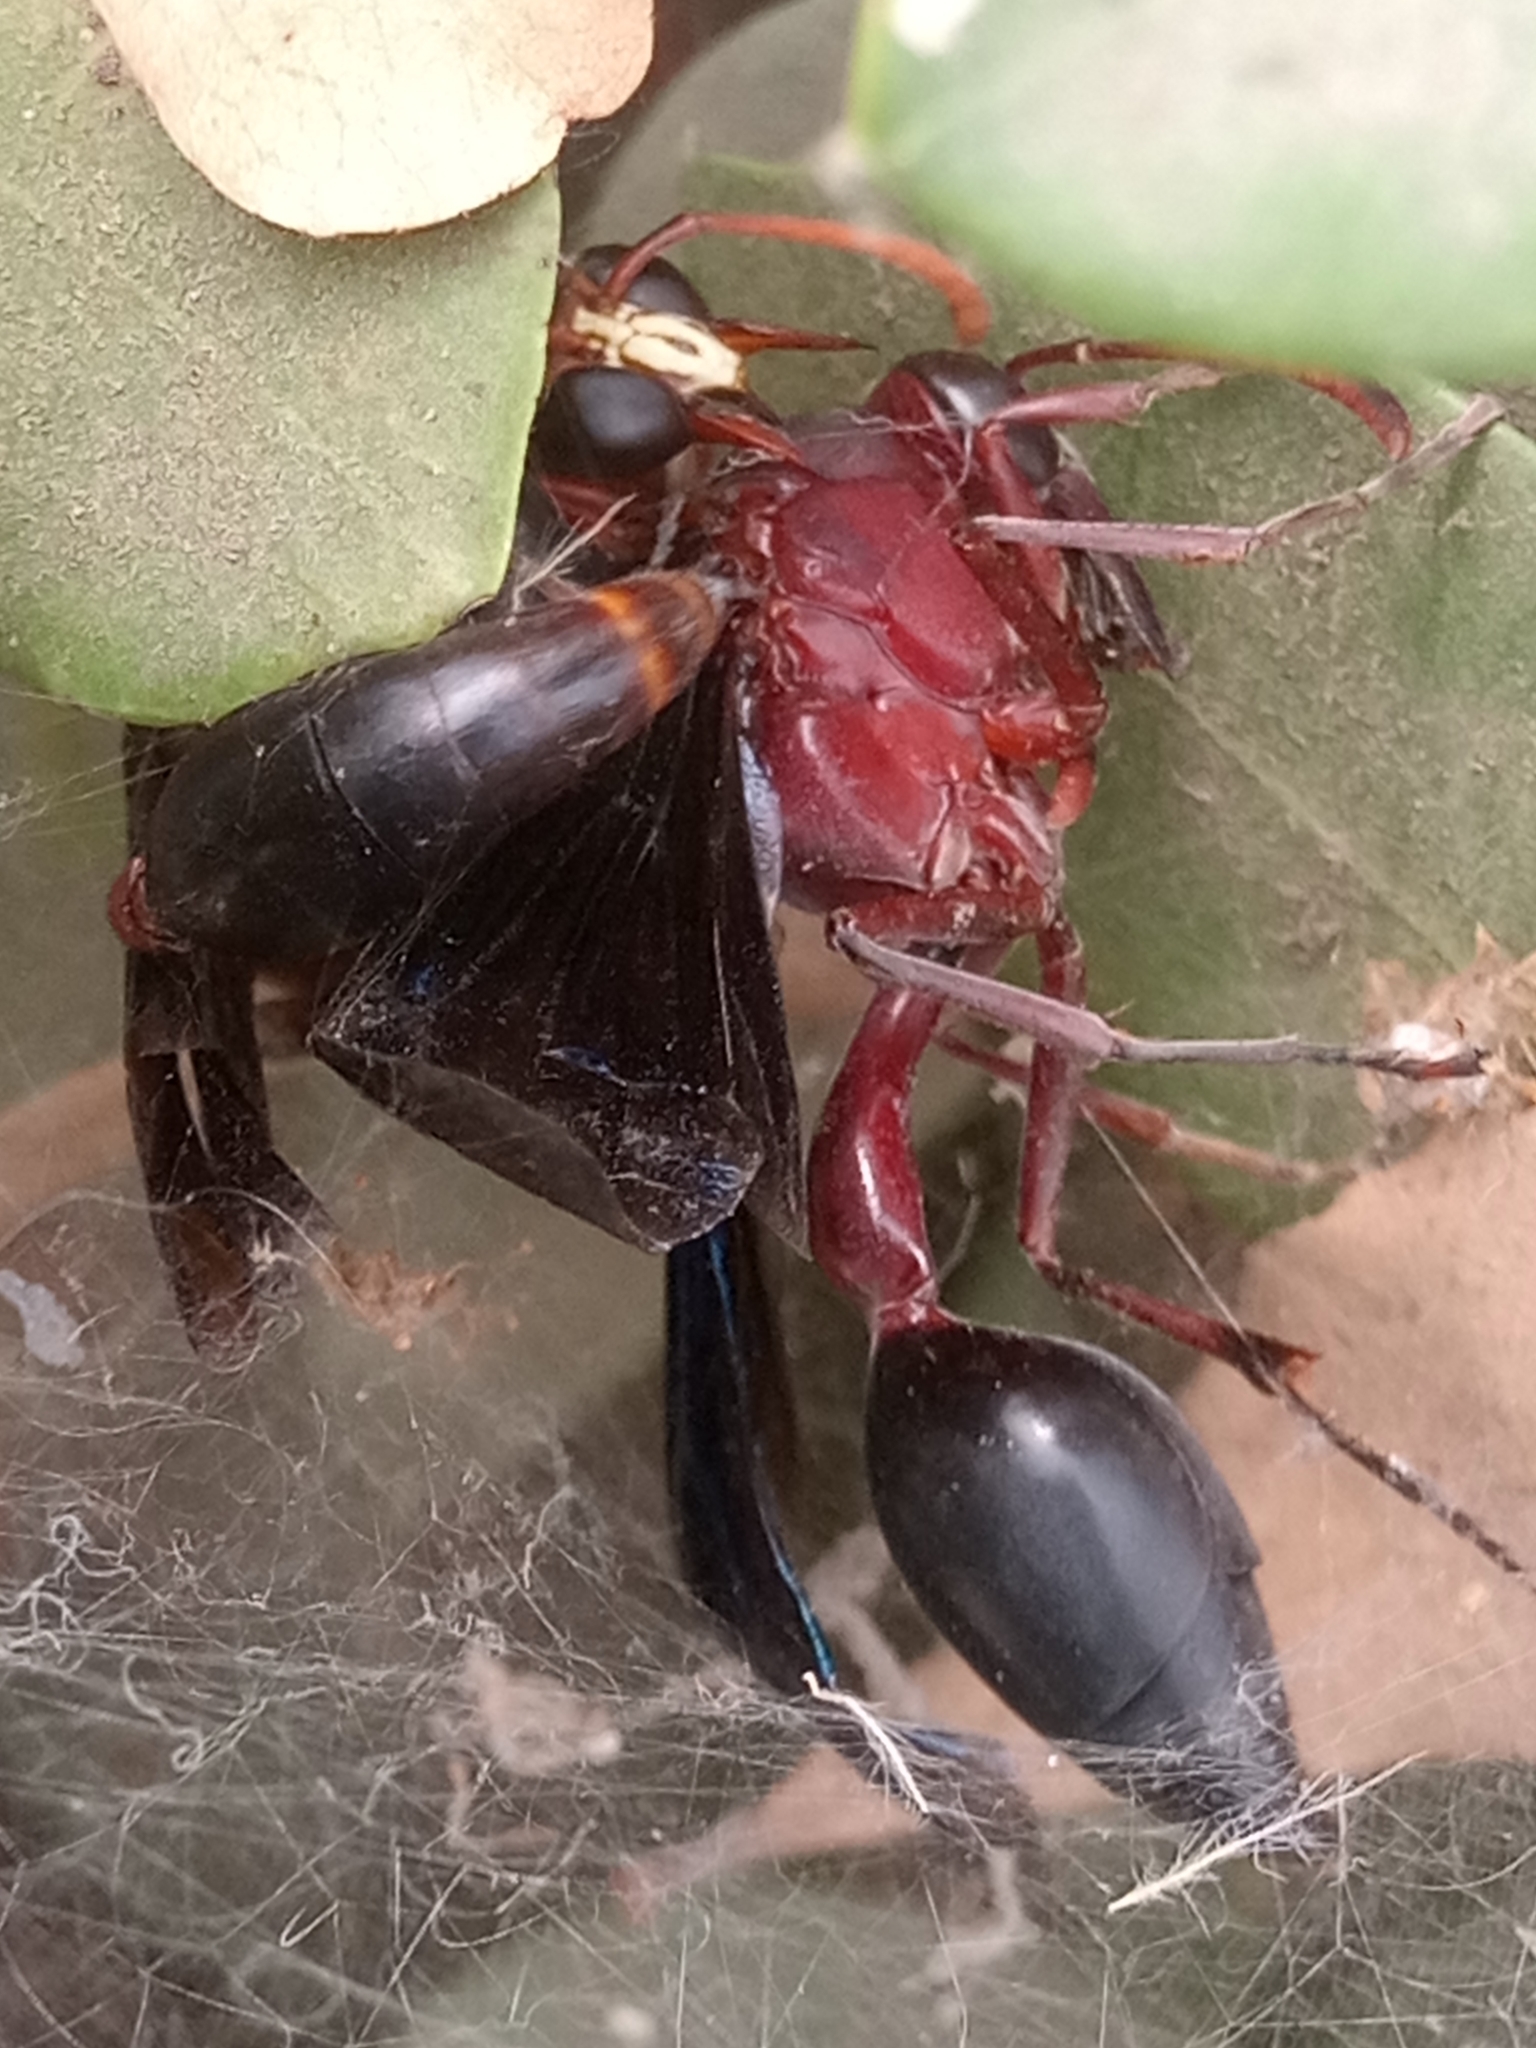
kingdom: Animalia
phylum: Arthropoda
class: Insecta
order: Hymenoptera
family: Eumenidae
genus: Delta
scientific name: Delta emarginatum
